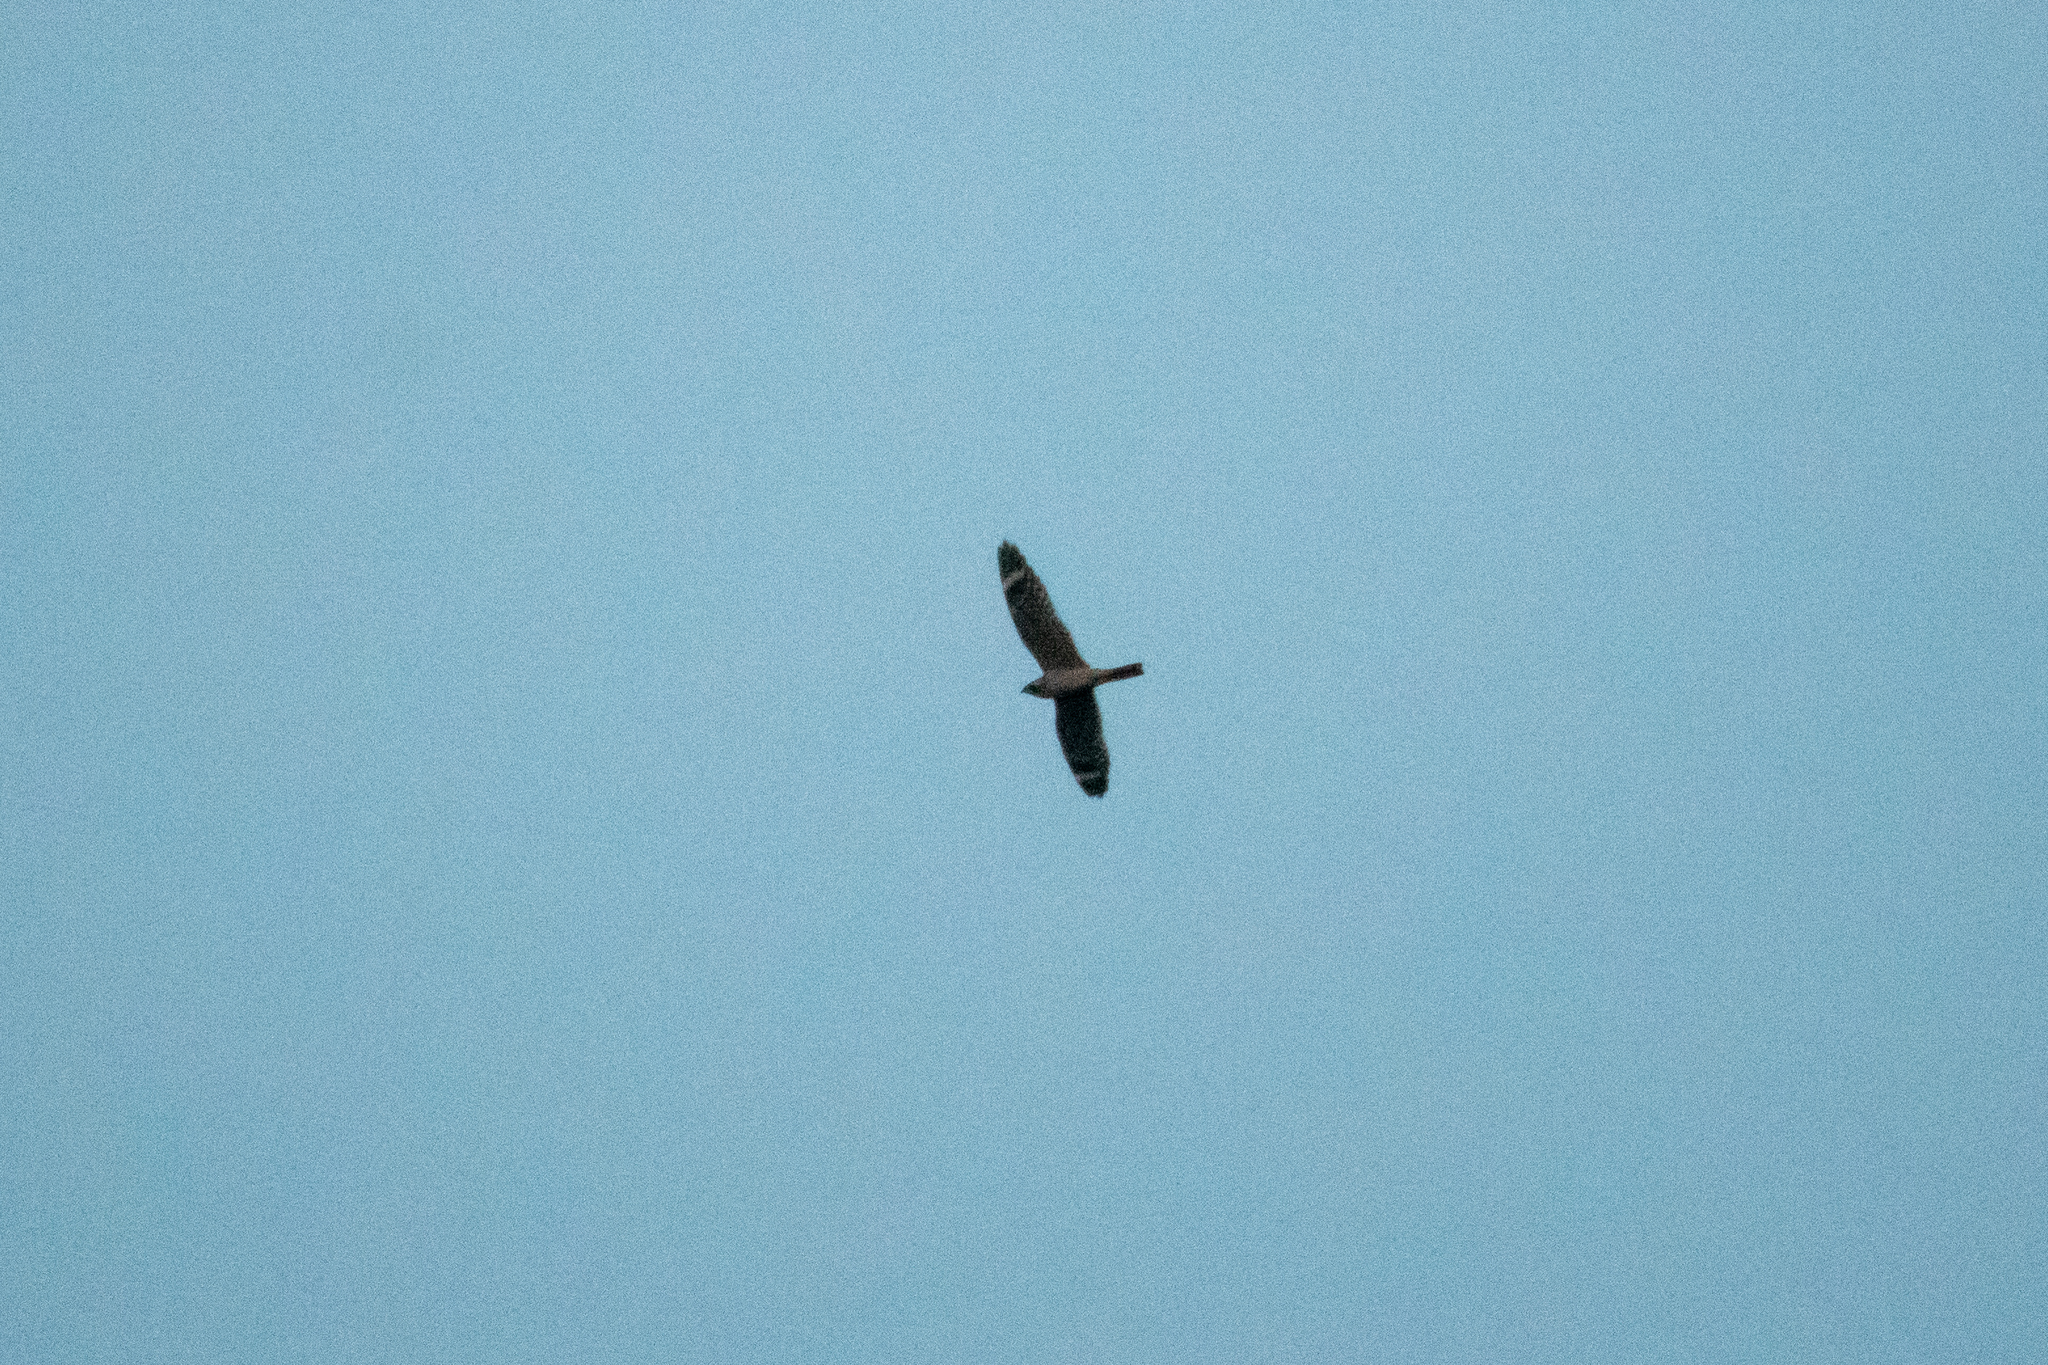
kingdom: Animalia
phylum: Chordata
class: Aves
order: Caprimulgiformes
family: Caprimulgidae
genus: Chordeiles
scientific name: Chordeiles acutipennis
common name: Lesser nighthawk
